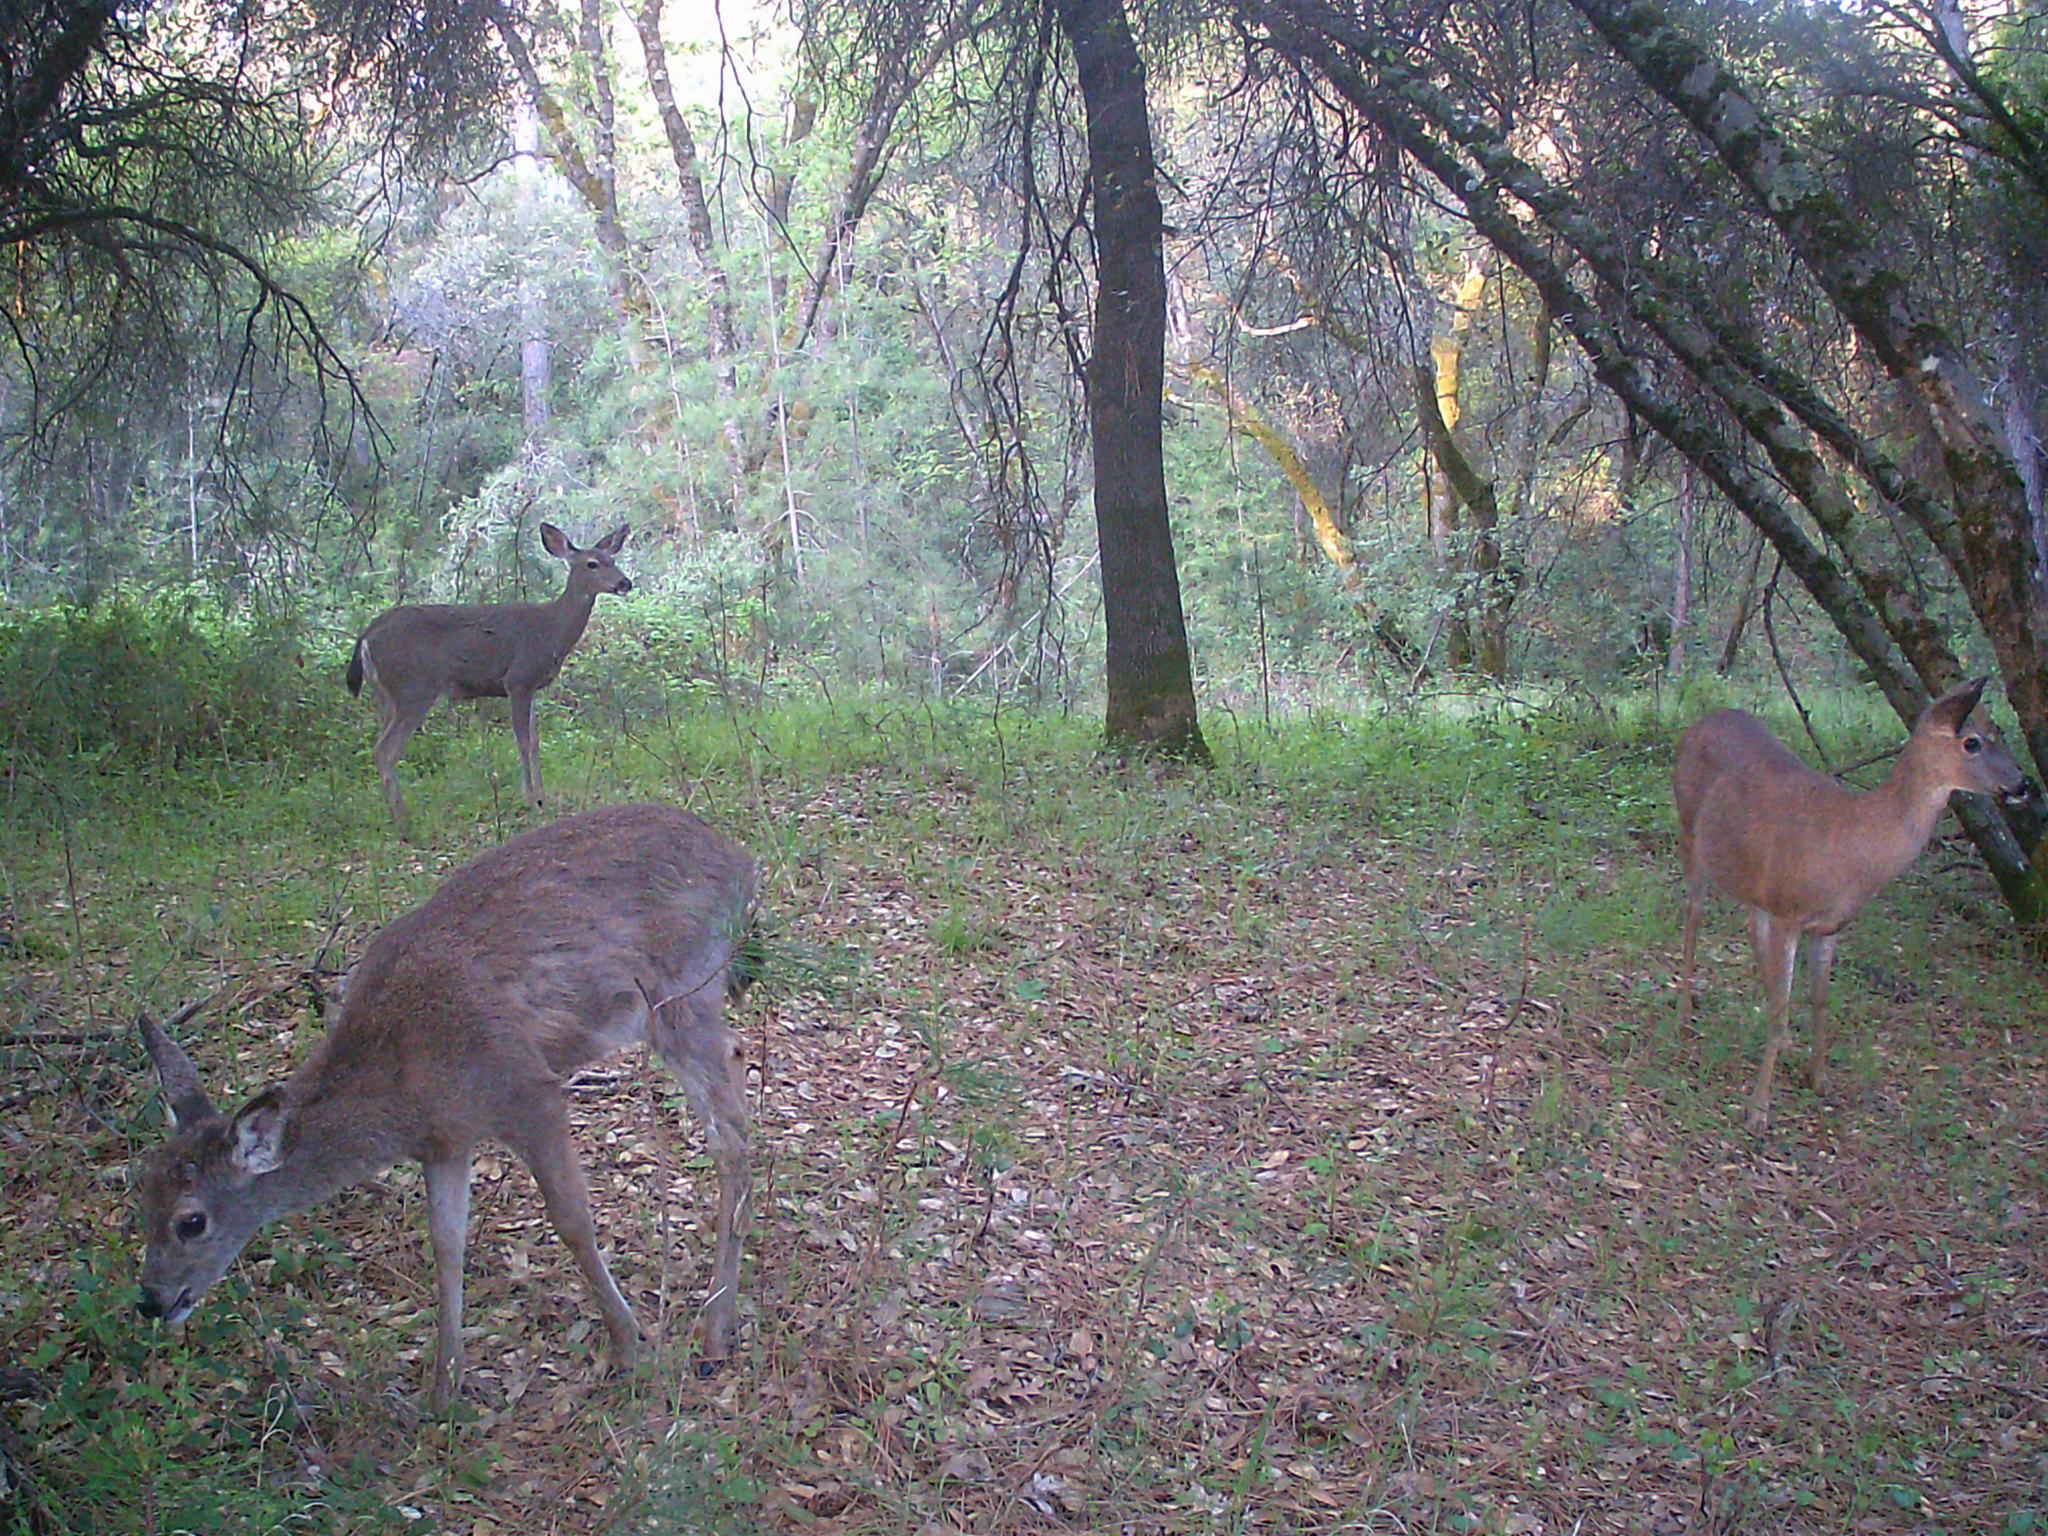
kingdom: Animalia
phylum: Chordata
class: Mammalia
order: Artiodactyla
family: Cervidae
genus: Odocoileus
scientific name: Odocoileus hemionus
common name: Mule deer
